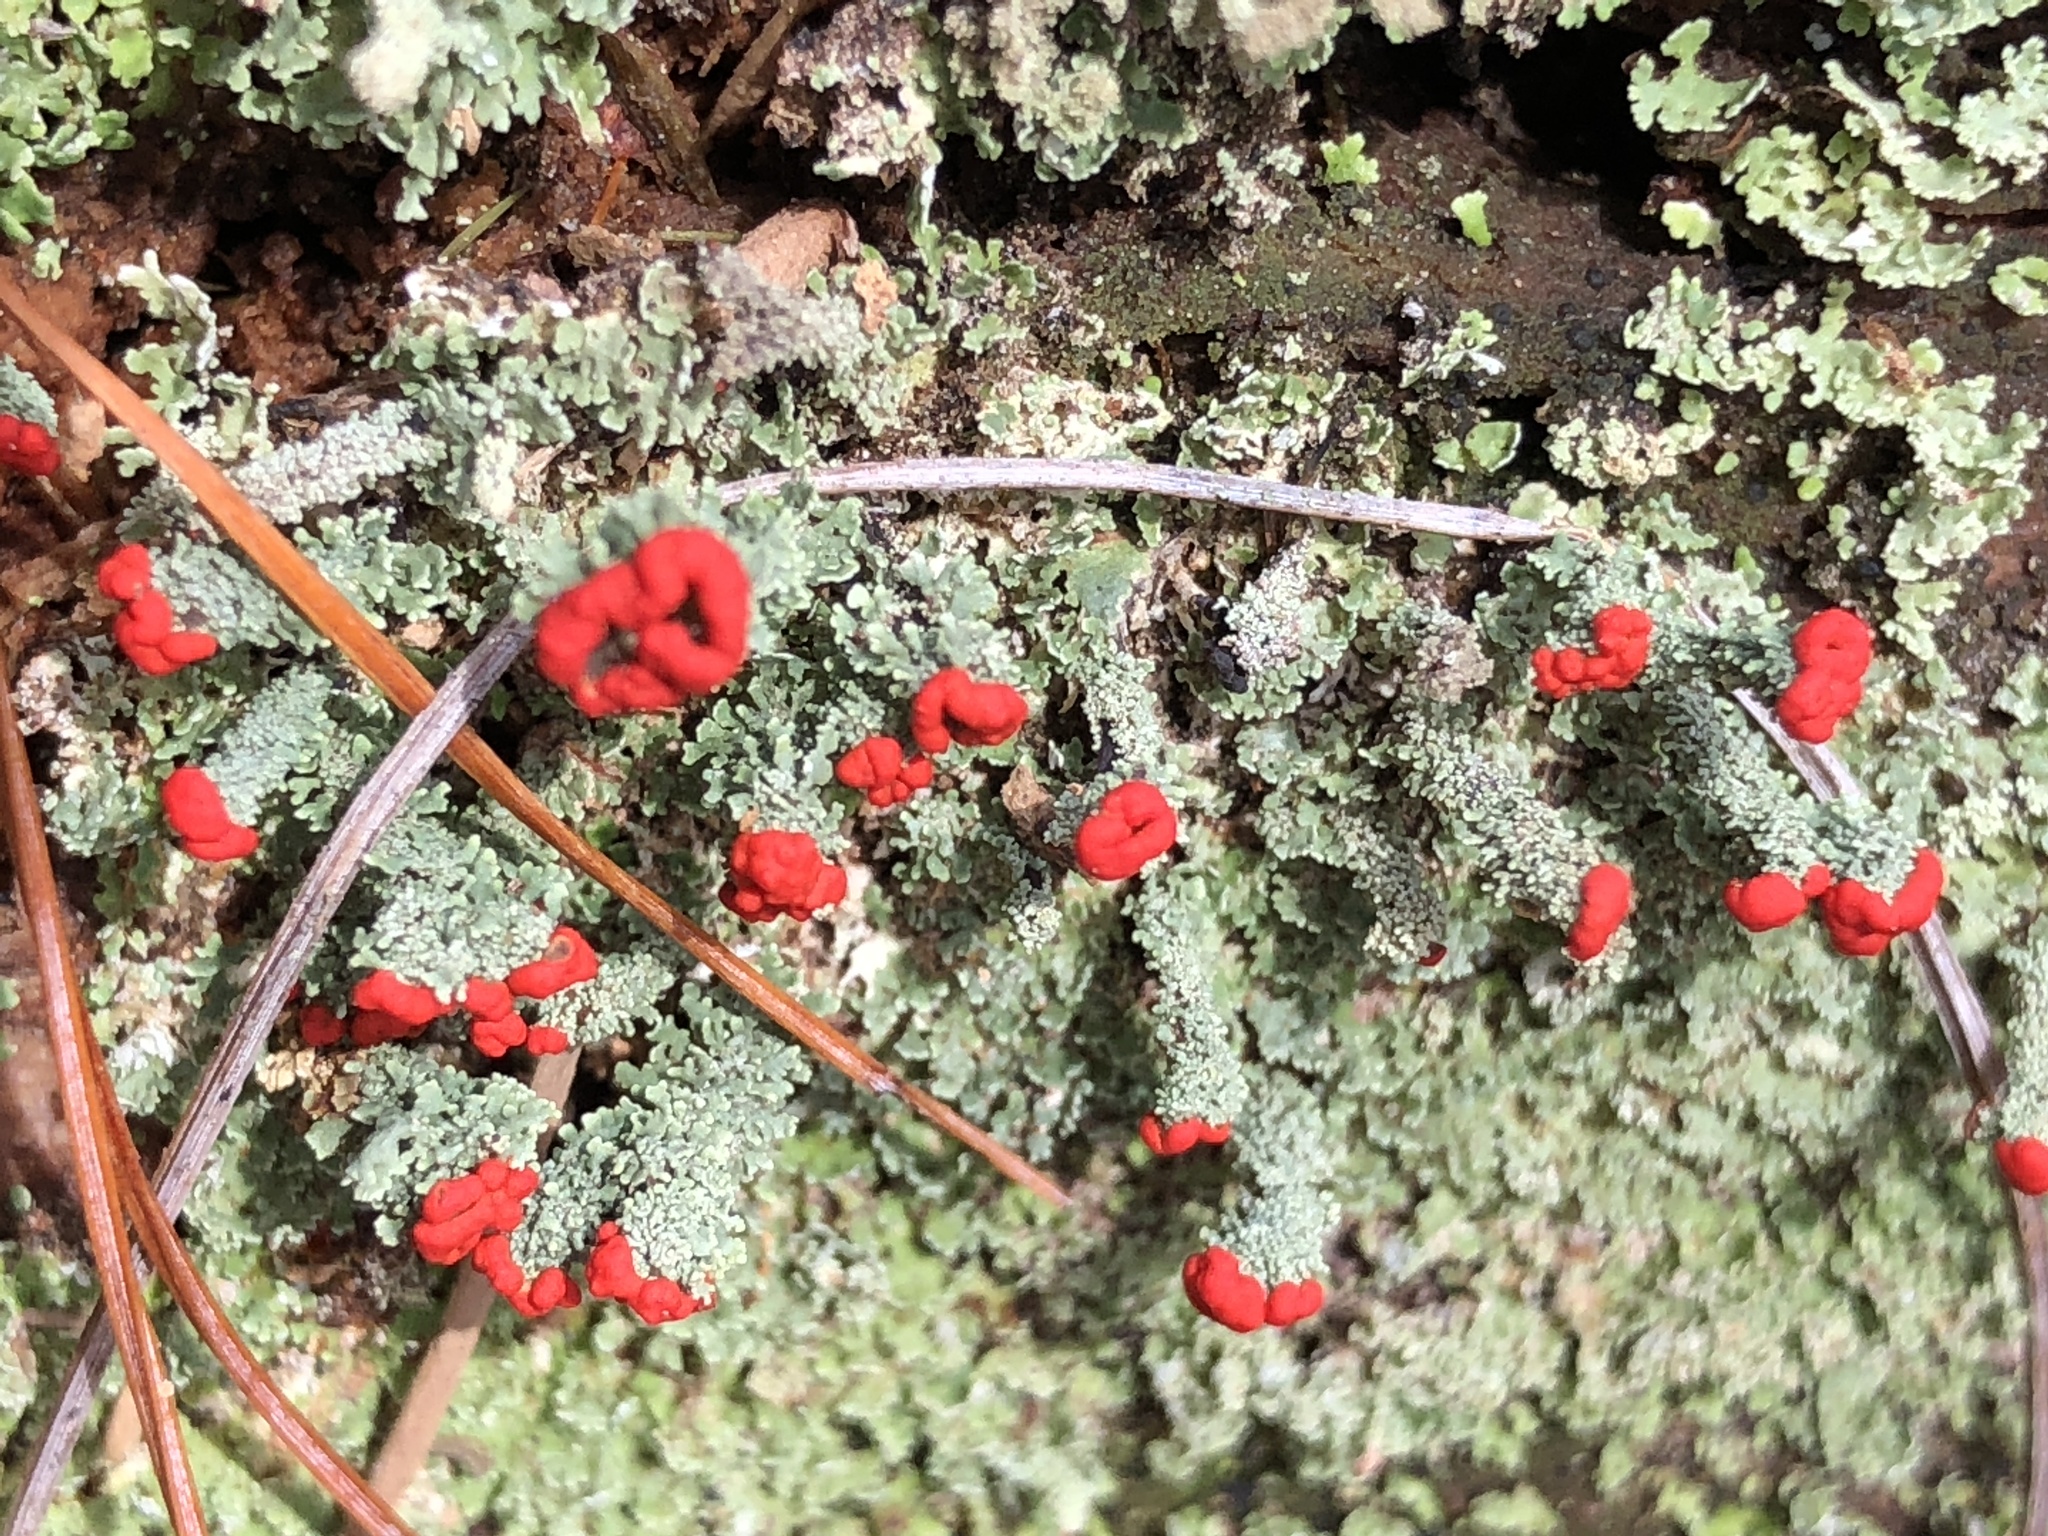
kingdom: Fungi
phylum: Ascomycota
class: Lecanoromycetes
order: Lecanorales
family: Cladoniaceae
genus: Cladonia
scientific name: Cladonia cristatella
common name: British soldier lichen
